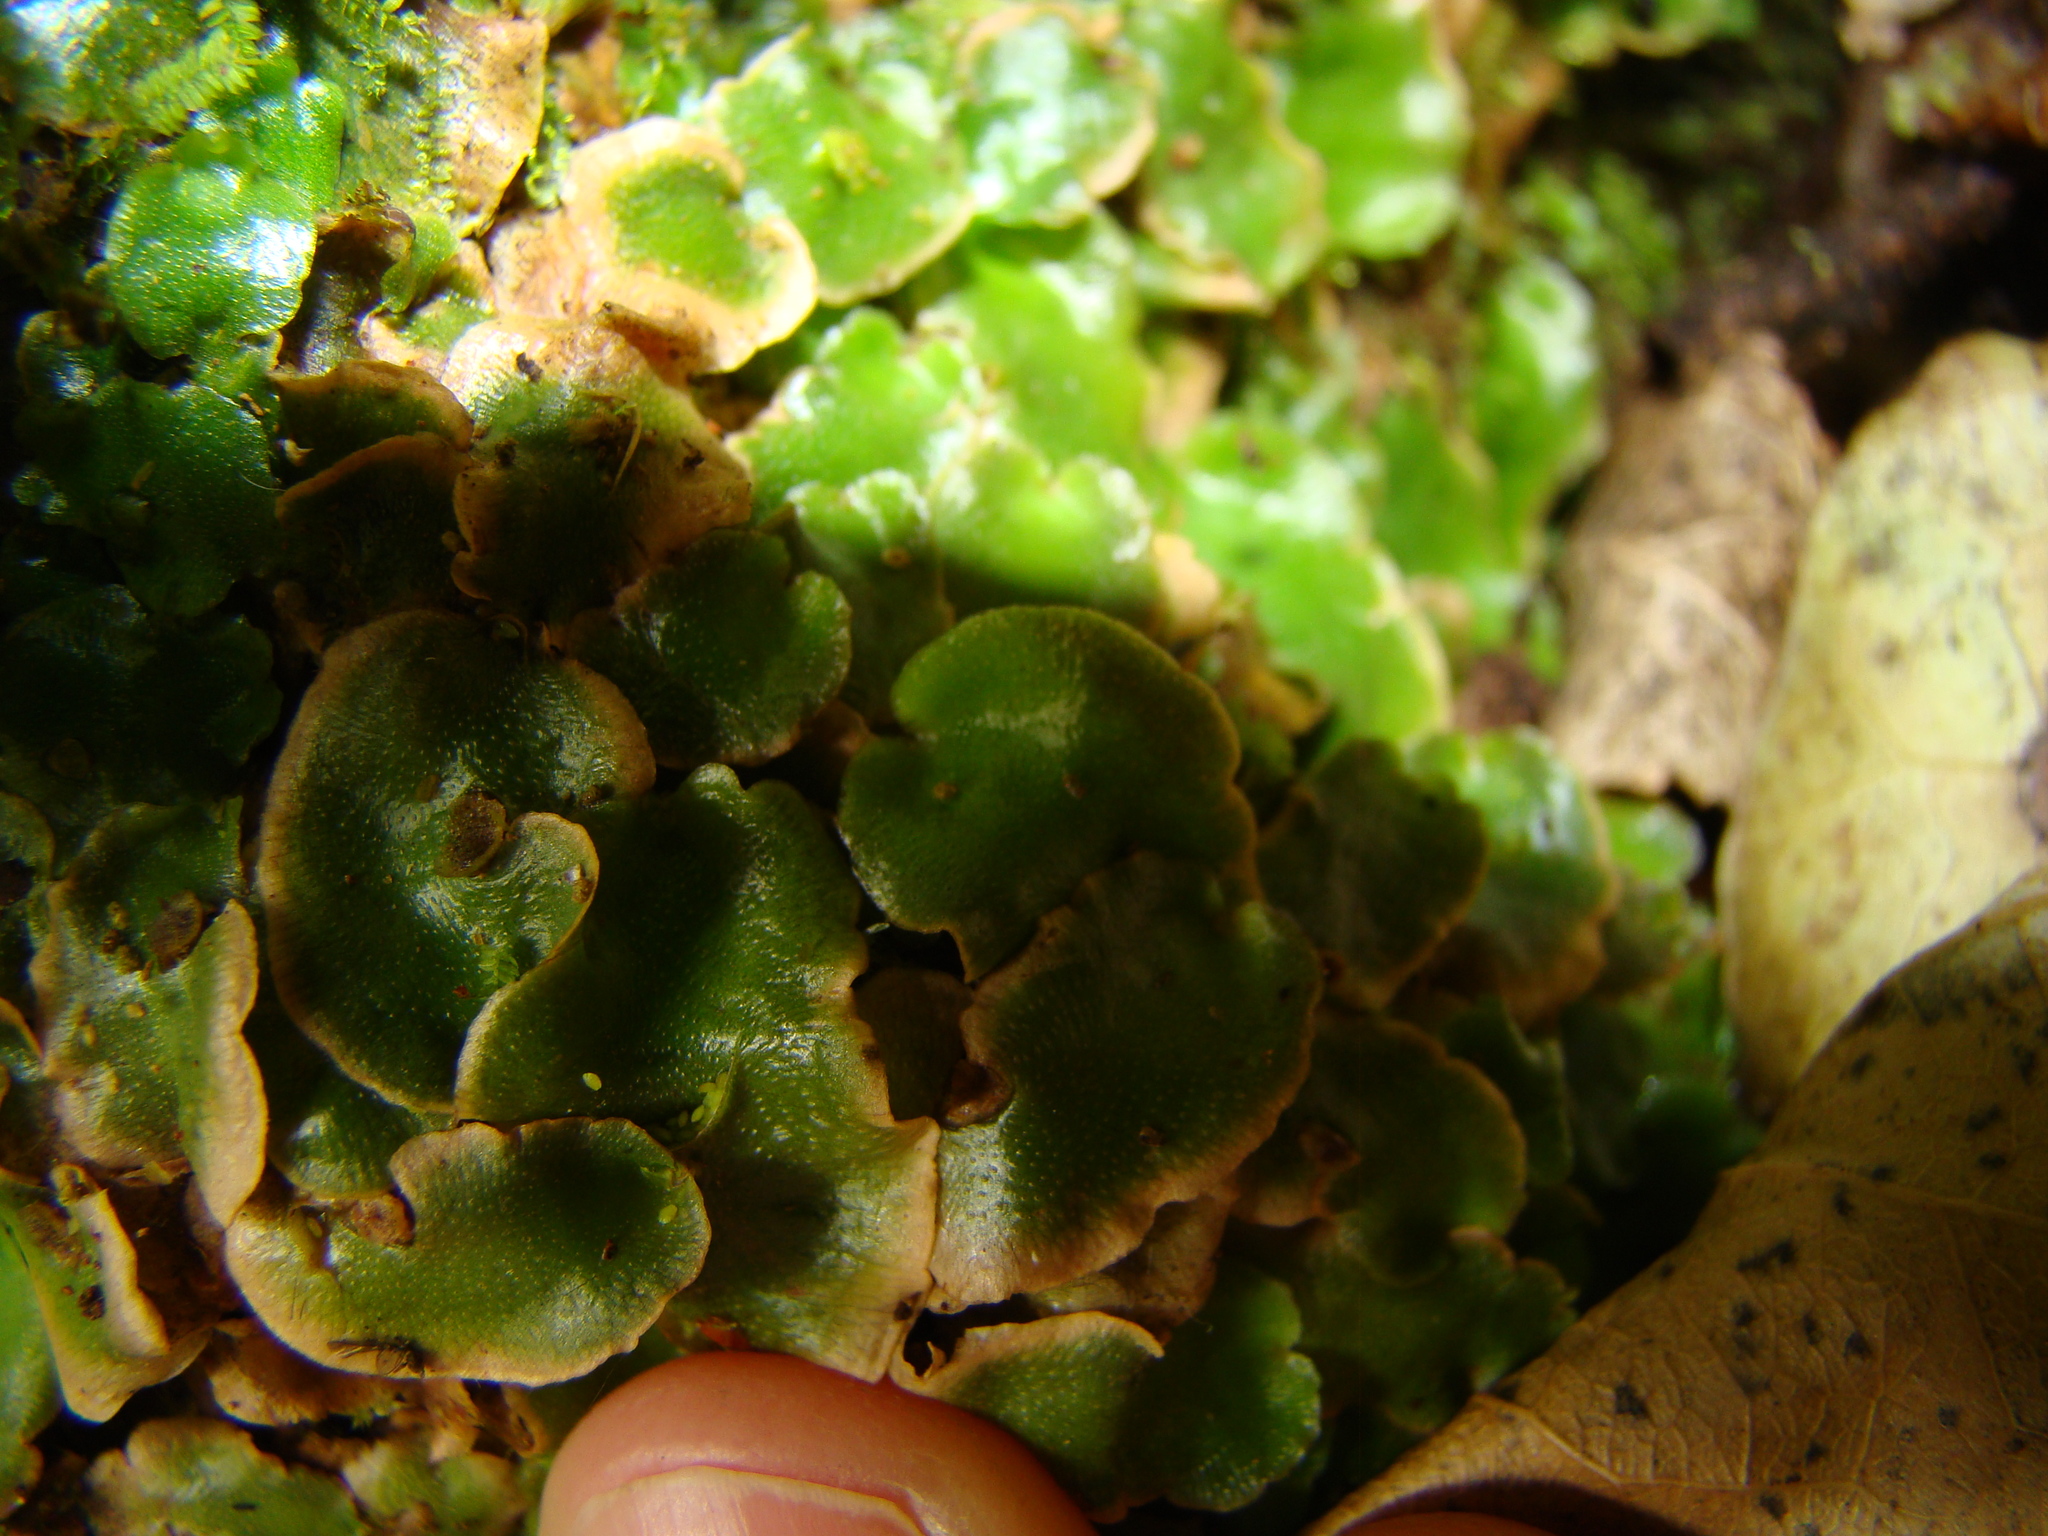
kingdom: Plantae
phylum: Marchantiophyta
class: Marchantiopsida
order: Lunulariales
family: Lunulariaceae
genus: Lunularia
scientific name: Lunularia cruciata
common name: Crescent-cup liverwort
